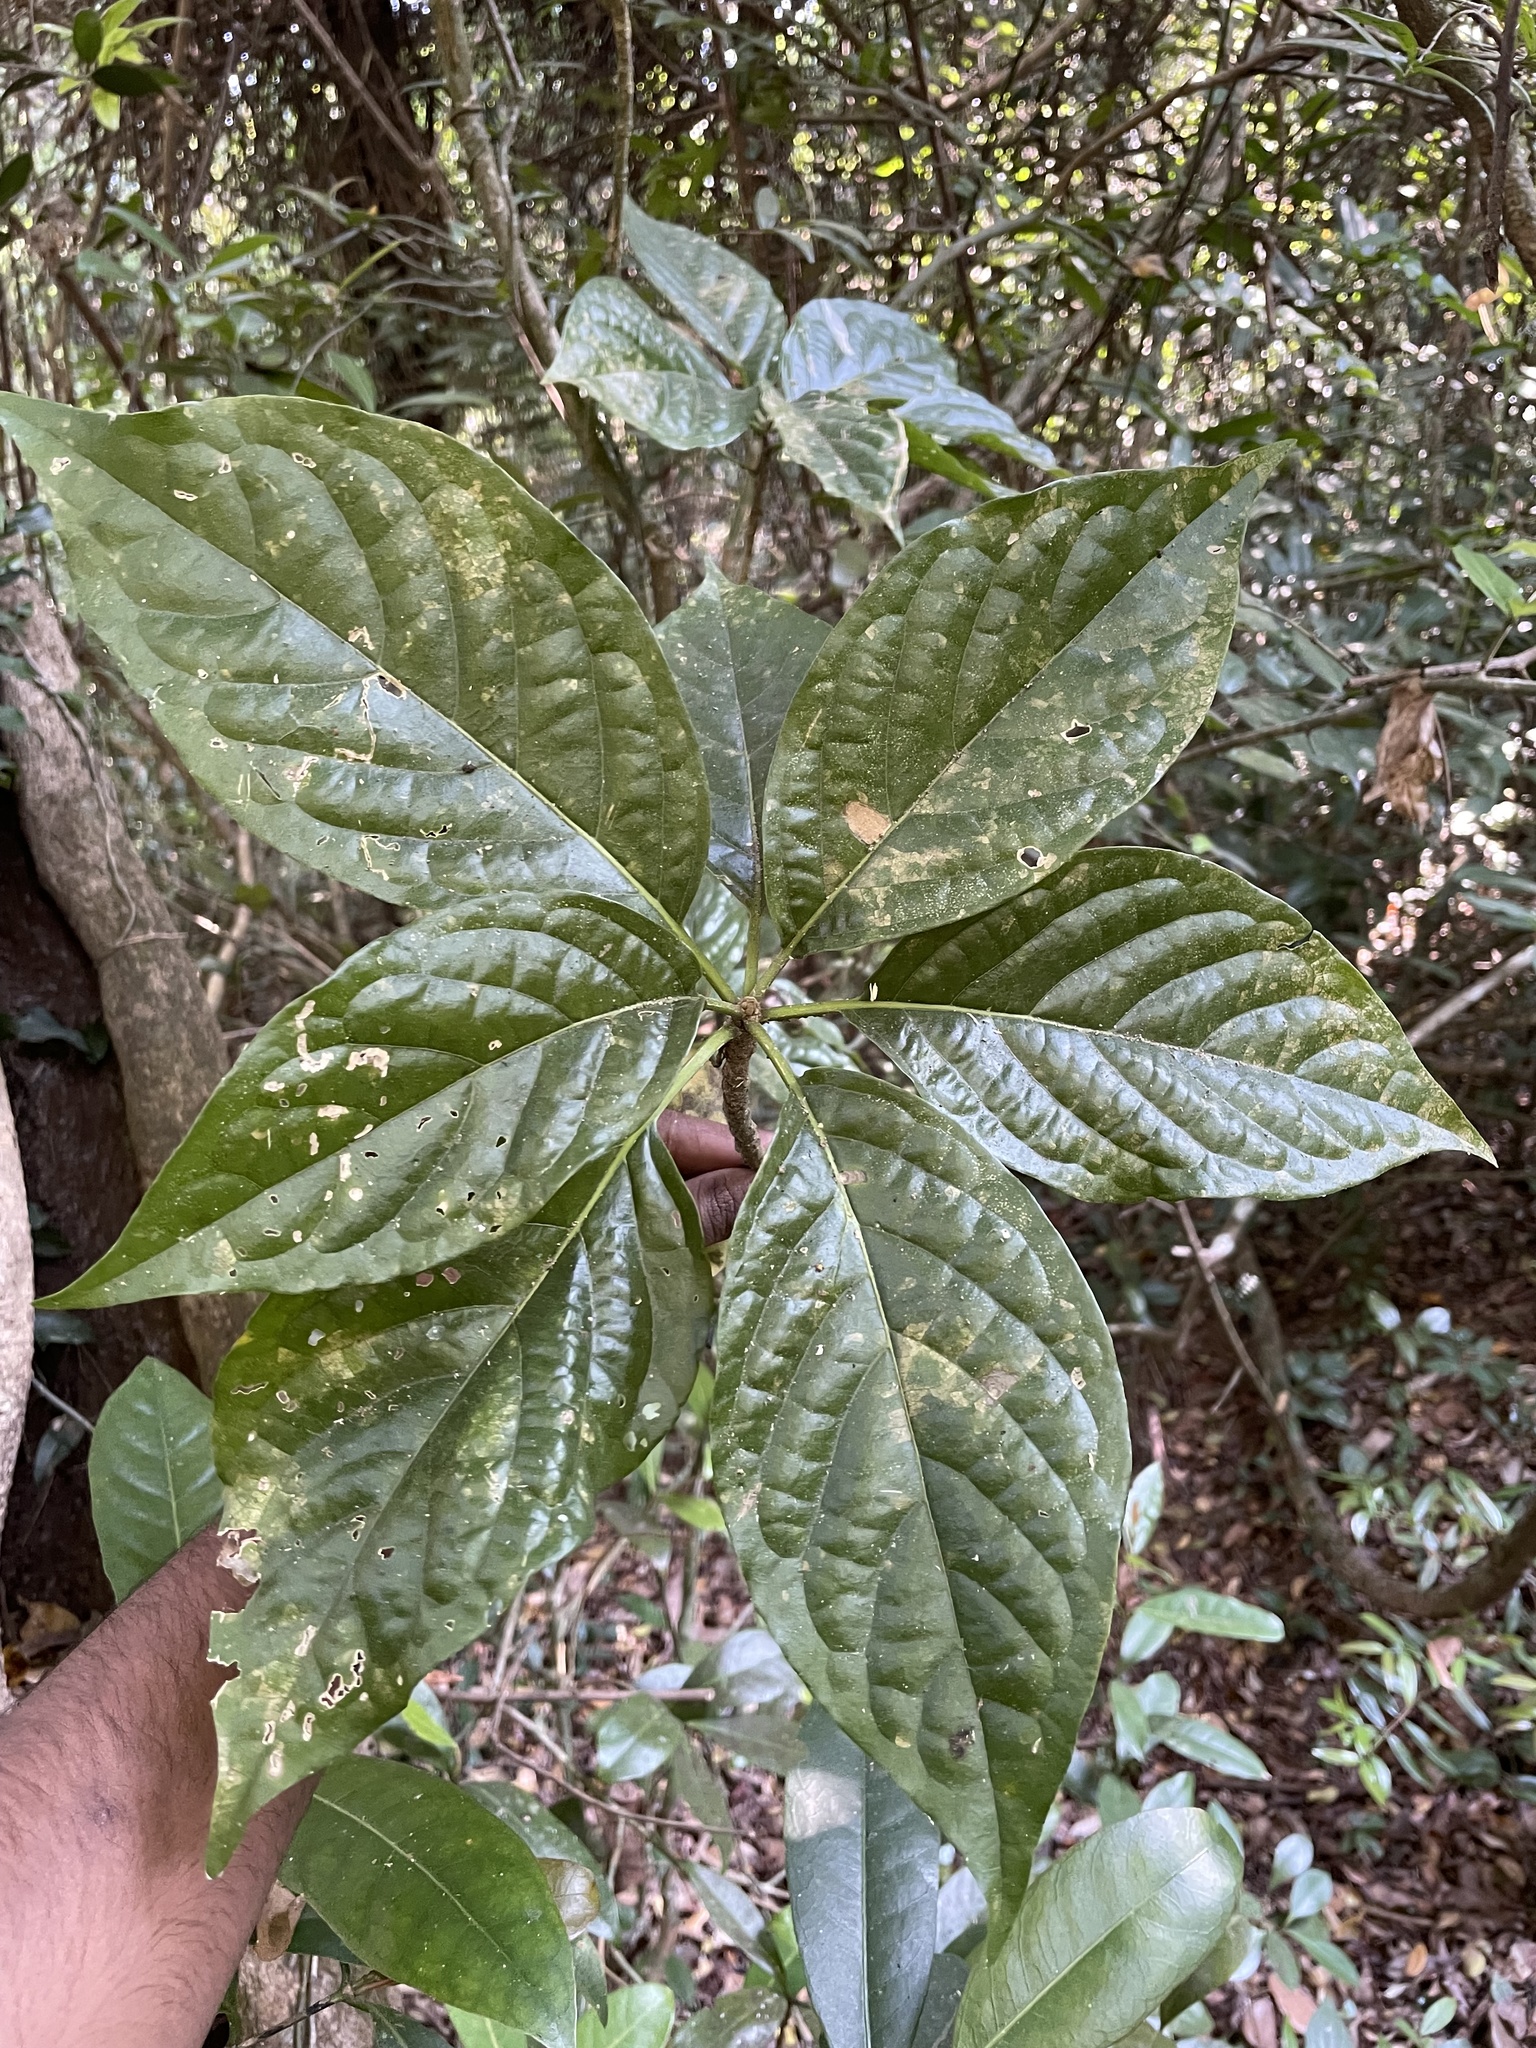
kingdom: Plantae
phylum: Tracheophyta
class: Magnoliopsida
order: Icacinales
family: Icacinaceae
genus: Nothapodytes
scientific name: Nothapodytes nimmoniana
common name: Nothapodytes
